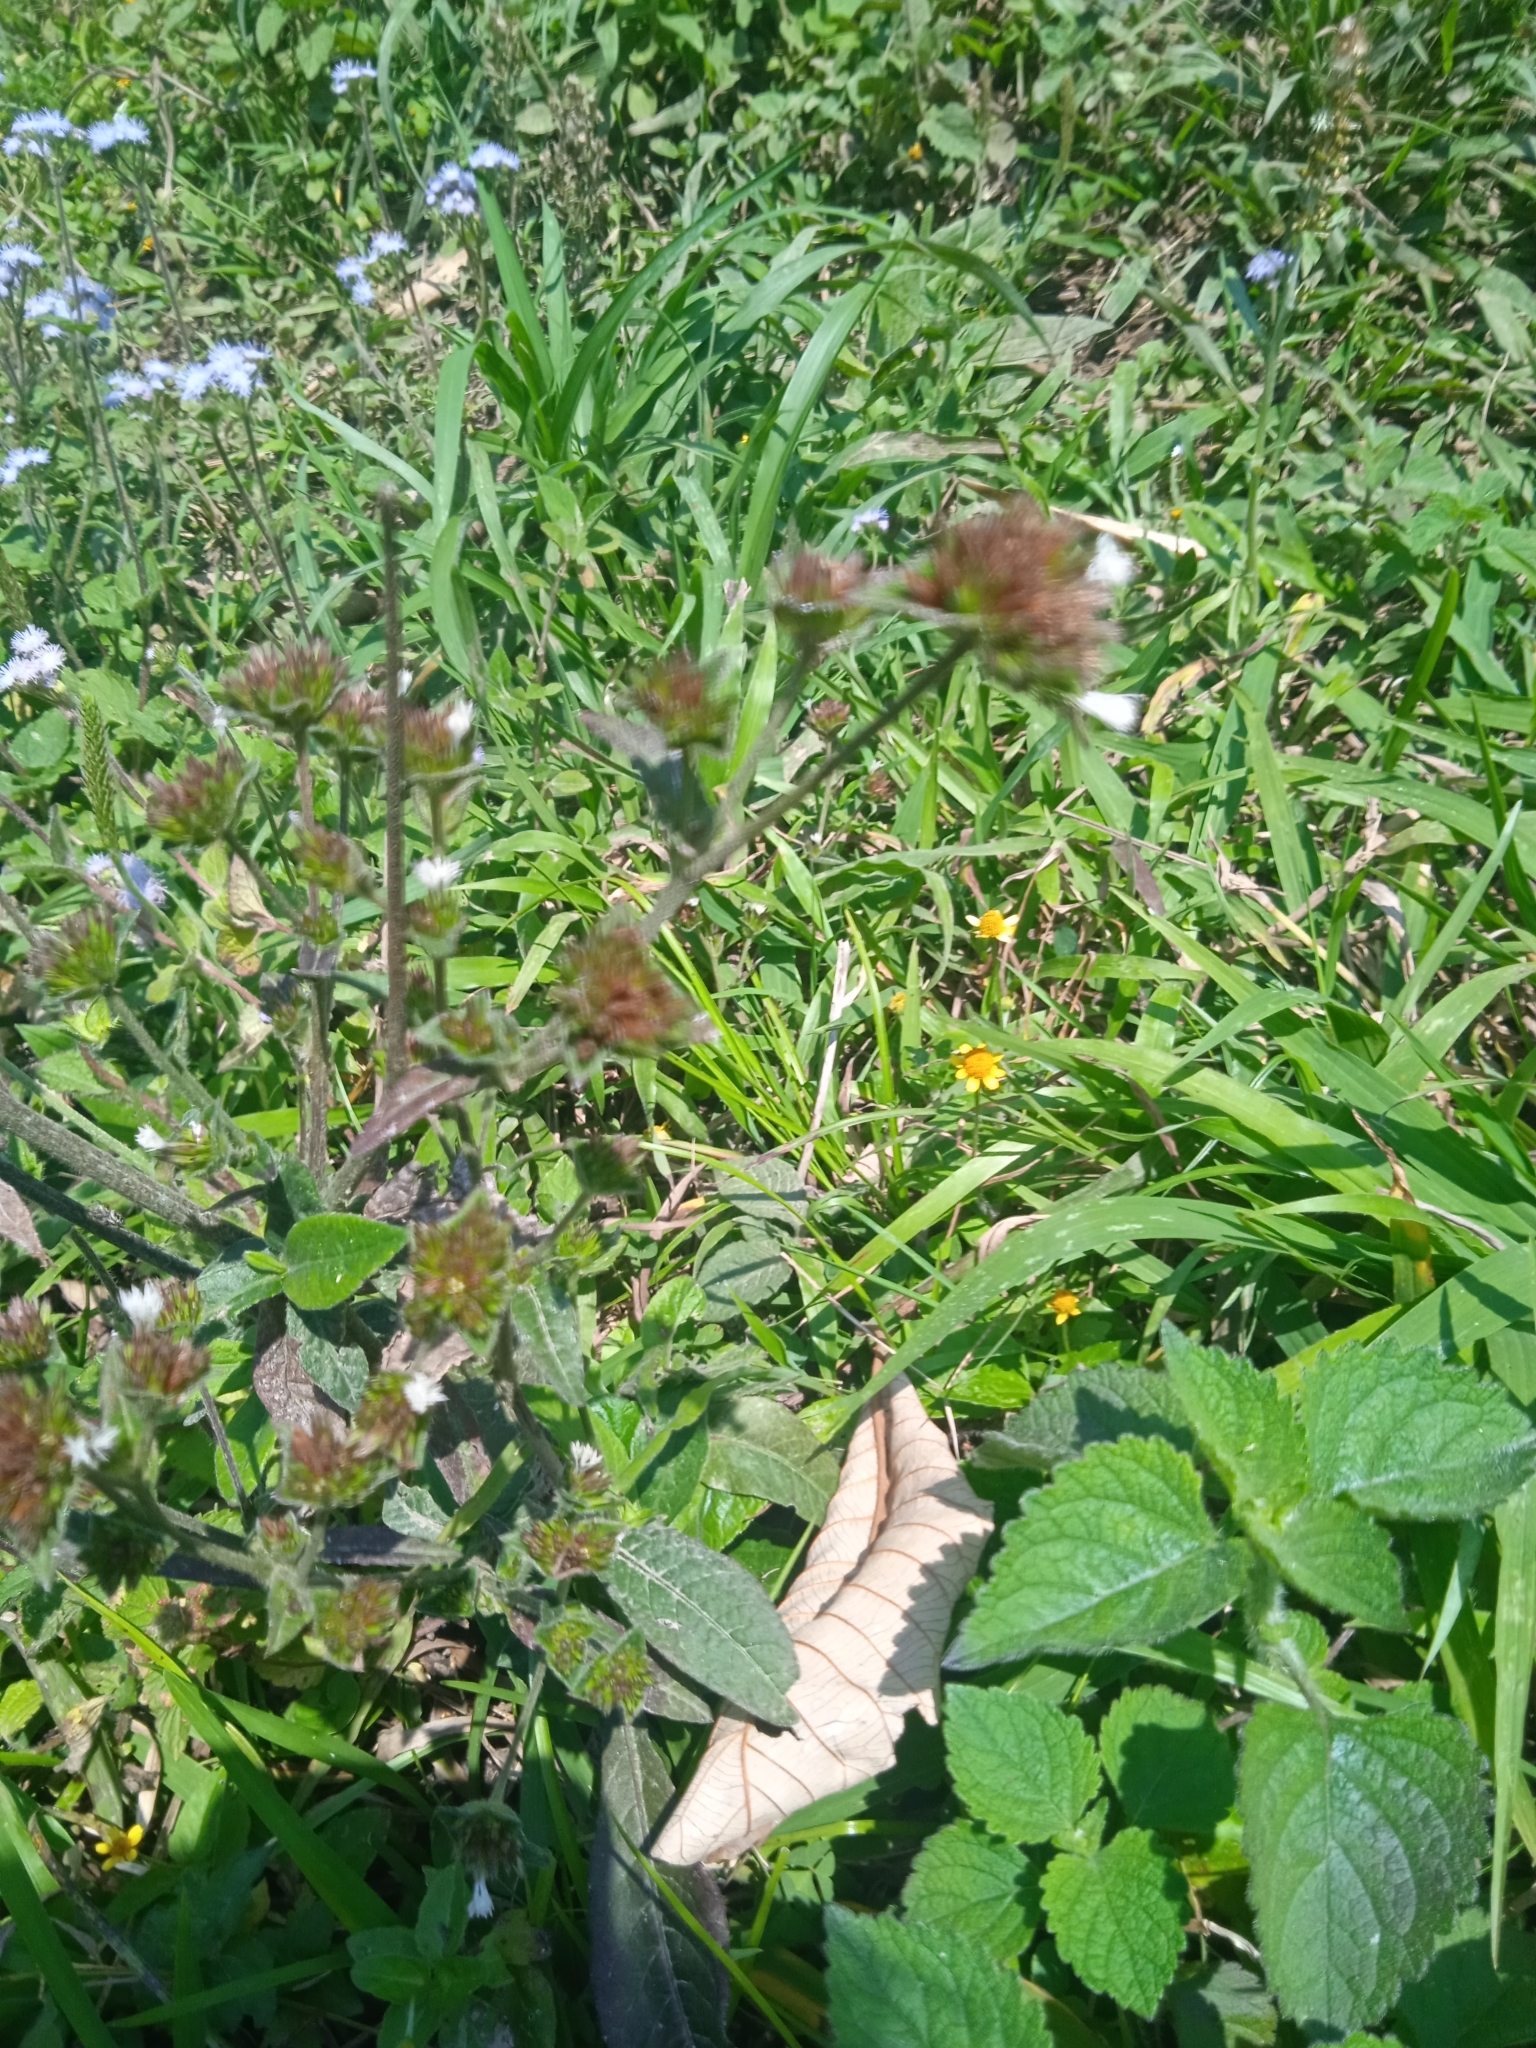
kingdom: Plantae
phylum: Tracheophyta
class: Magnoliopsida
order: Asterales
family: Asteraceae
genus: Elephantopus
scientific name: Elephantopus mollis
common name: Soft elephantsfoot
